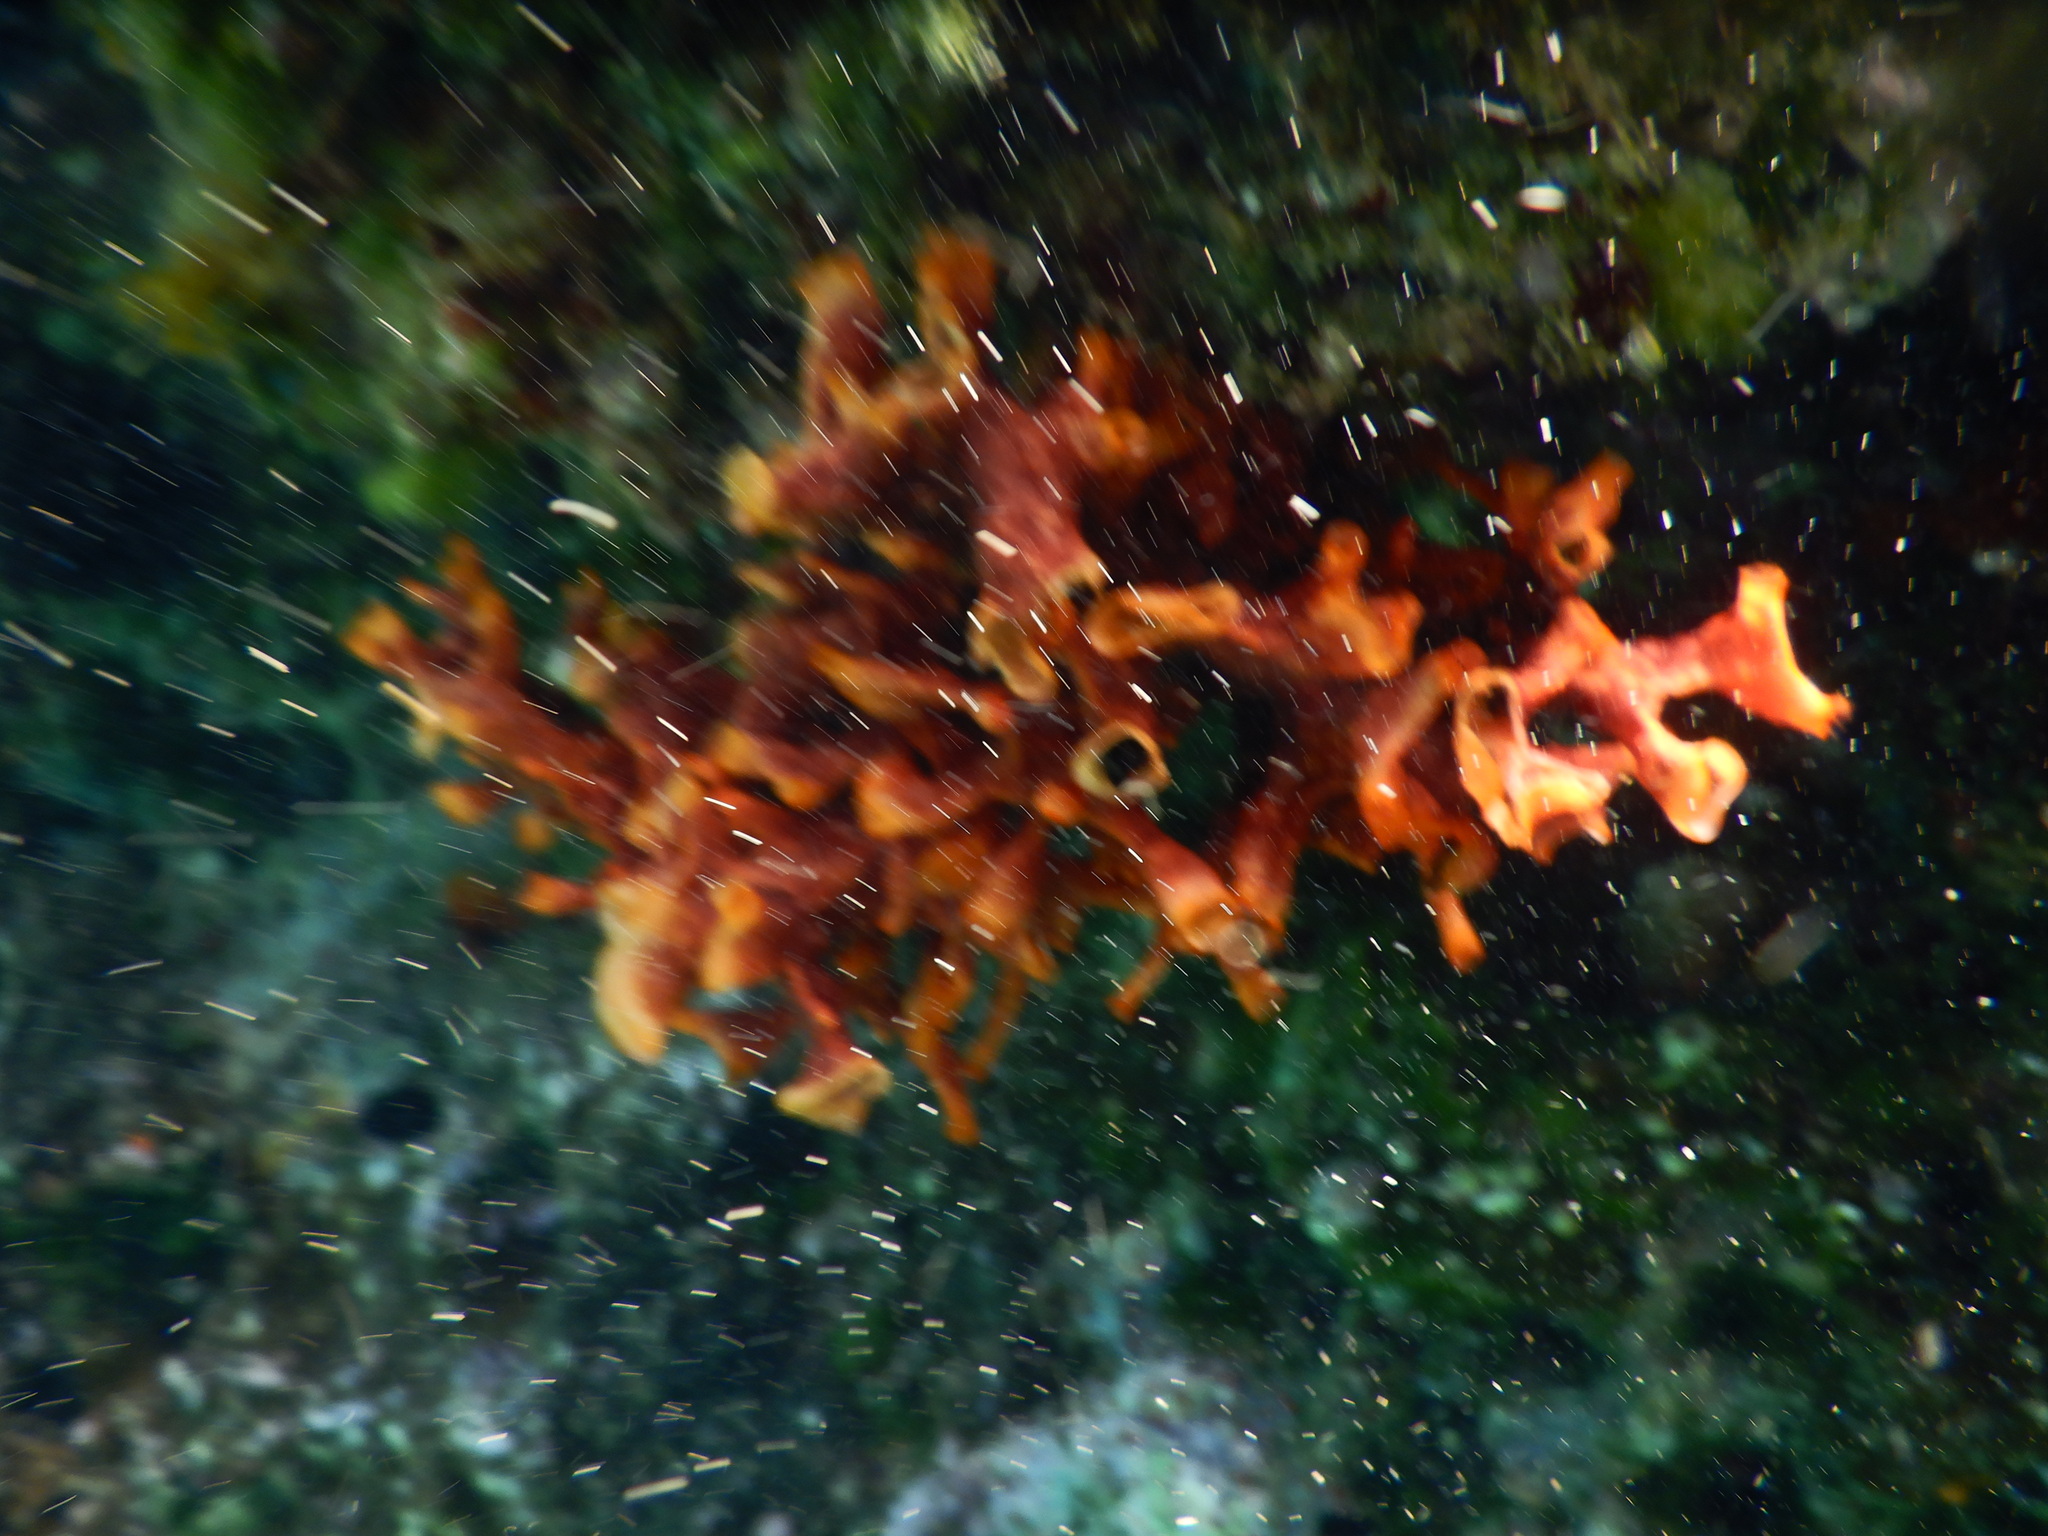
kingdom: Animalia
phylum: Bryozoa
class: Gymnolaemata
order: Cheilostomatida
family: Schizoporellidae
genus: Schizoporella
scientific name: Schizoporella errata
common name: Branching bryozoan
